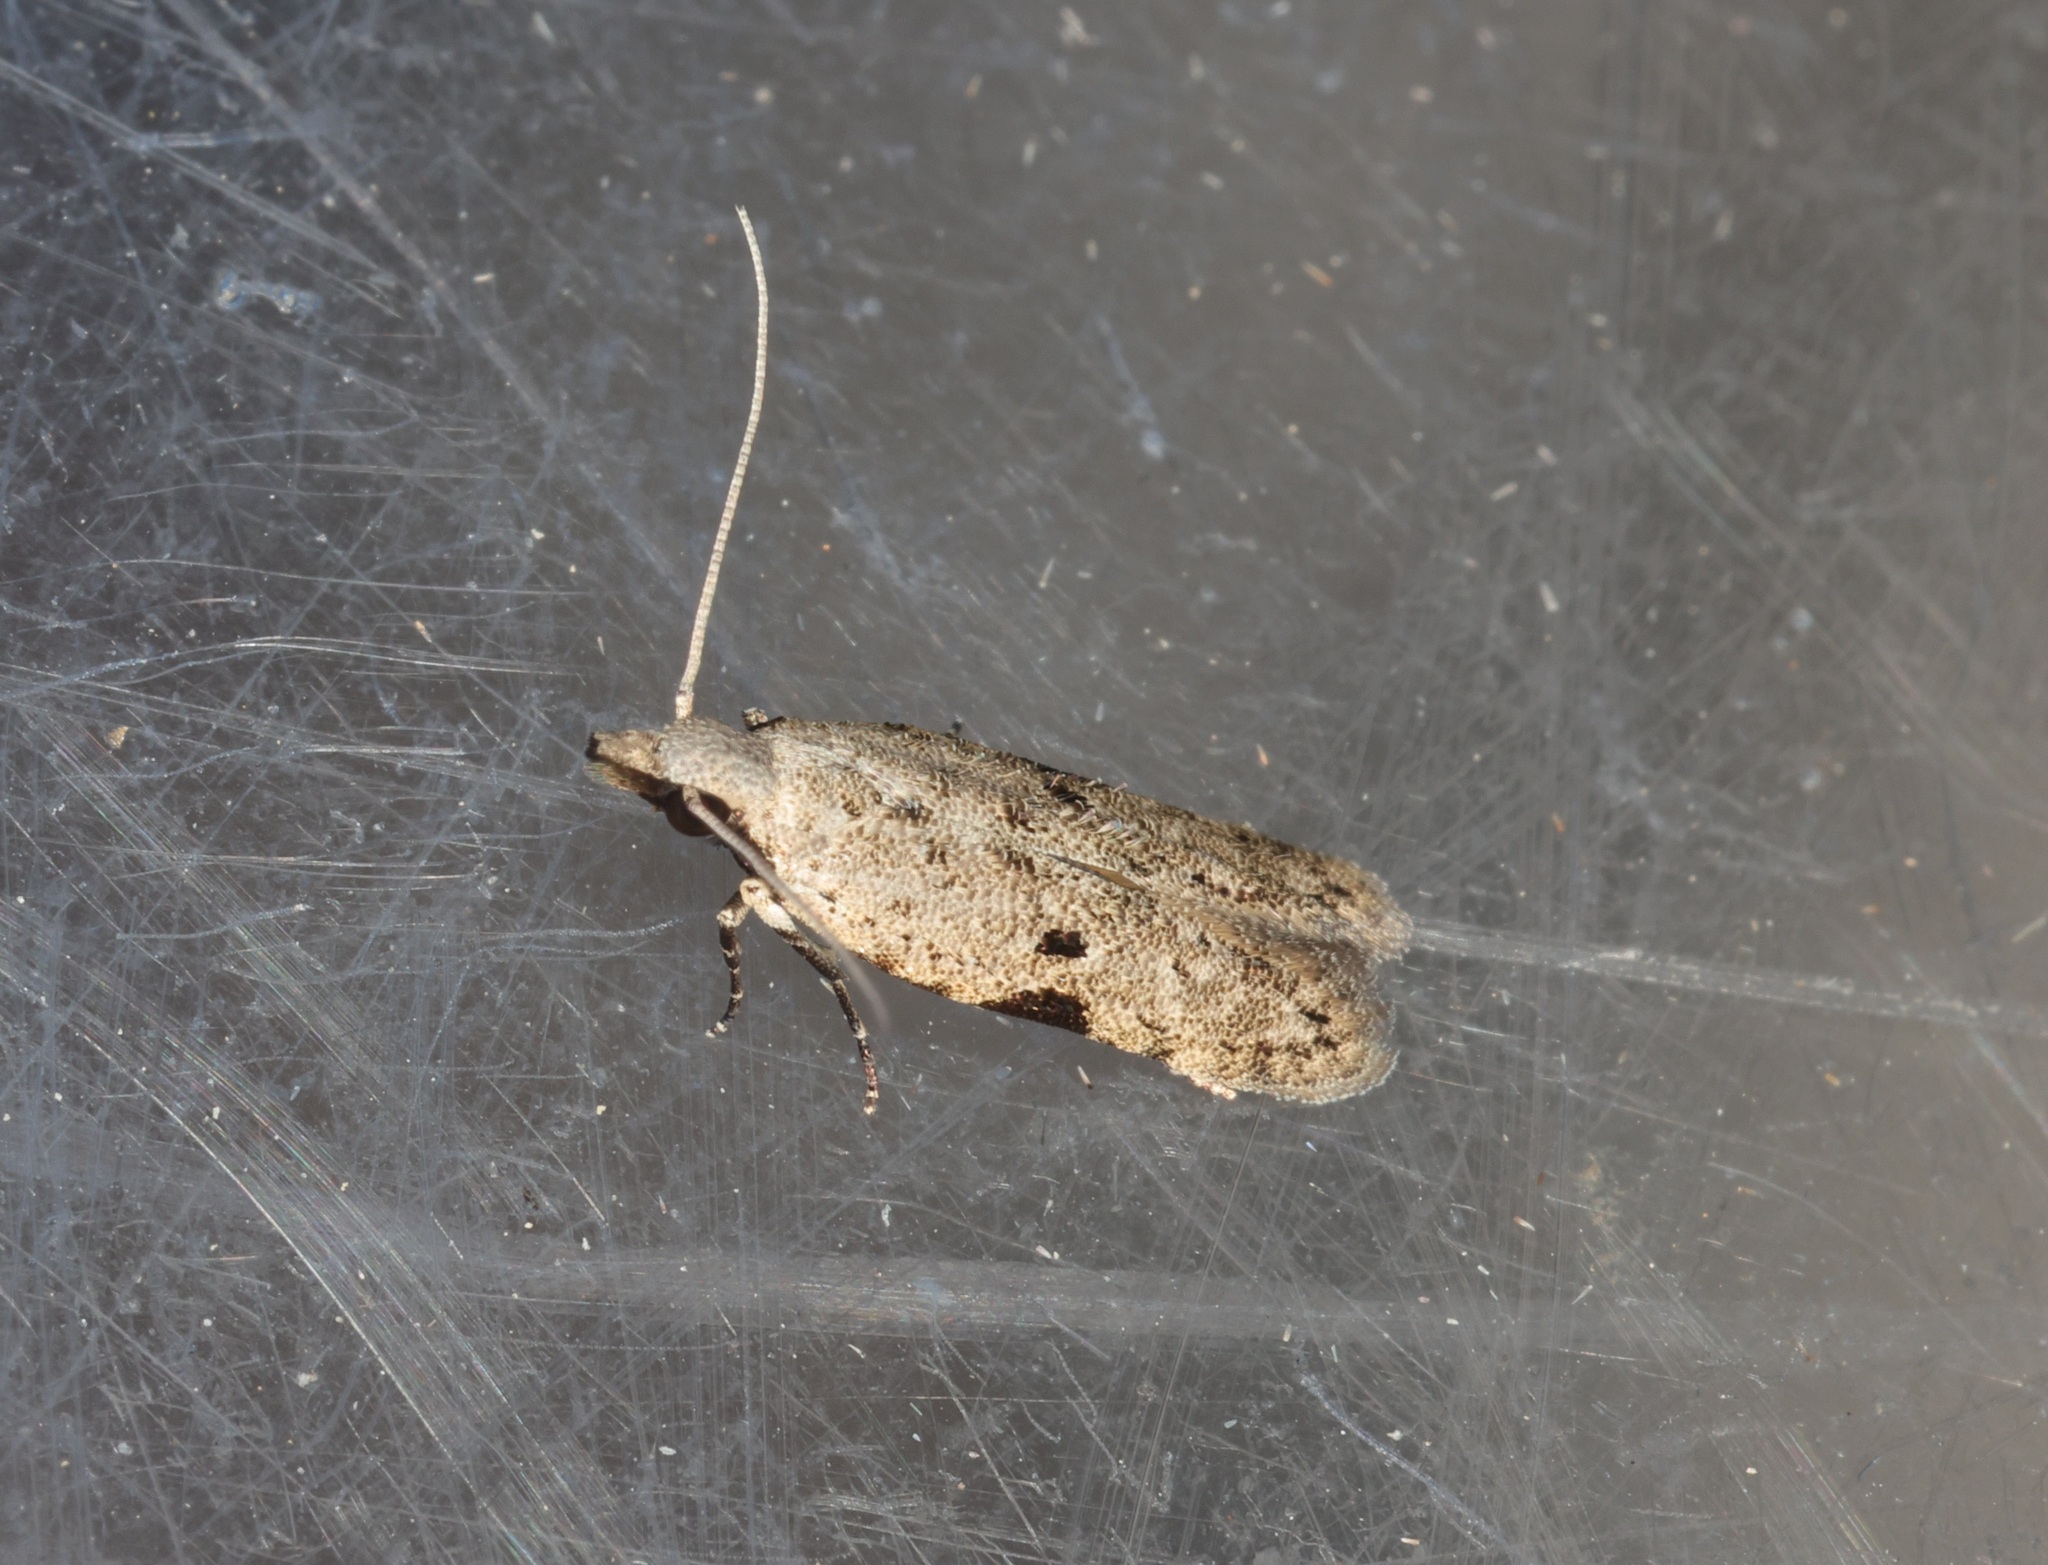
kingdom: Animalia
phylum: Arthropoda
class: Insecta
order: Lepidoptera
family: Gelechiidae
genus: Anarsia
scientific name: Anarsia patulella
